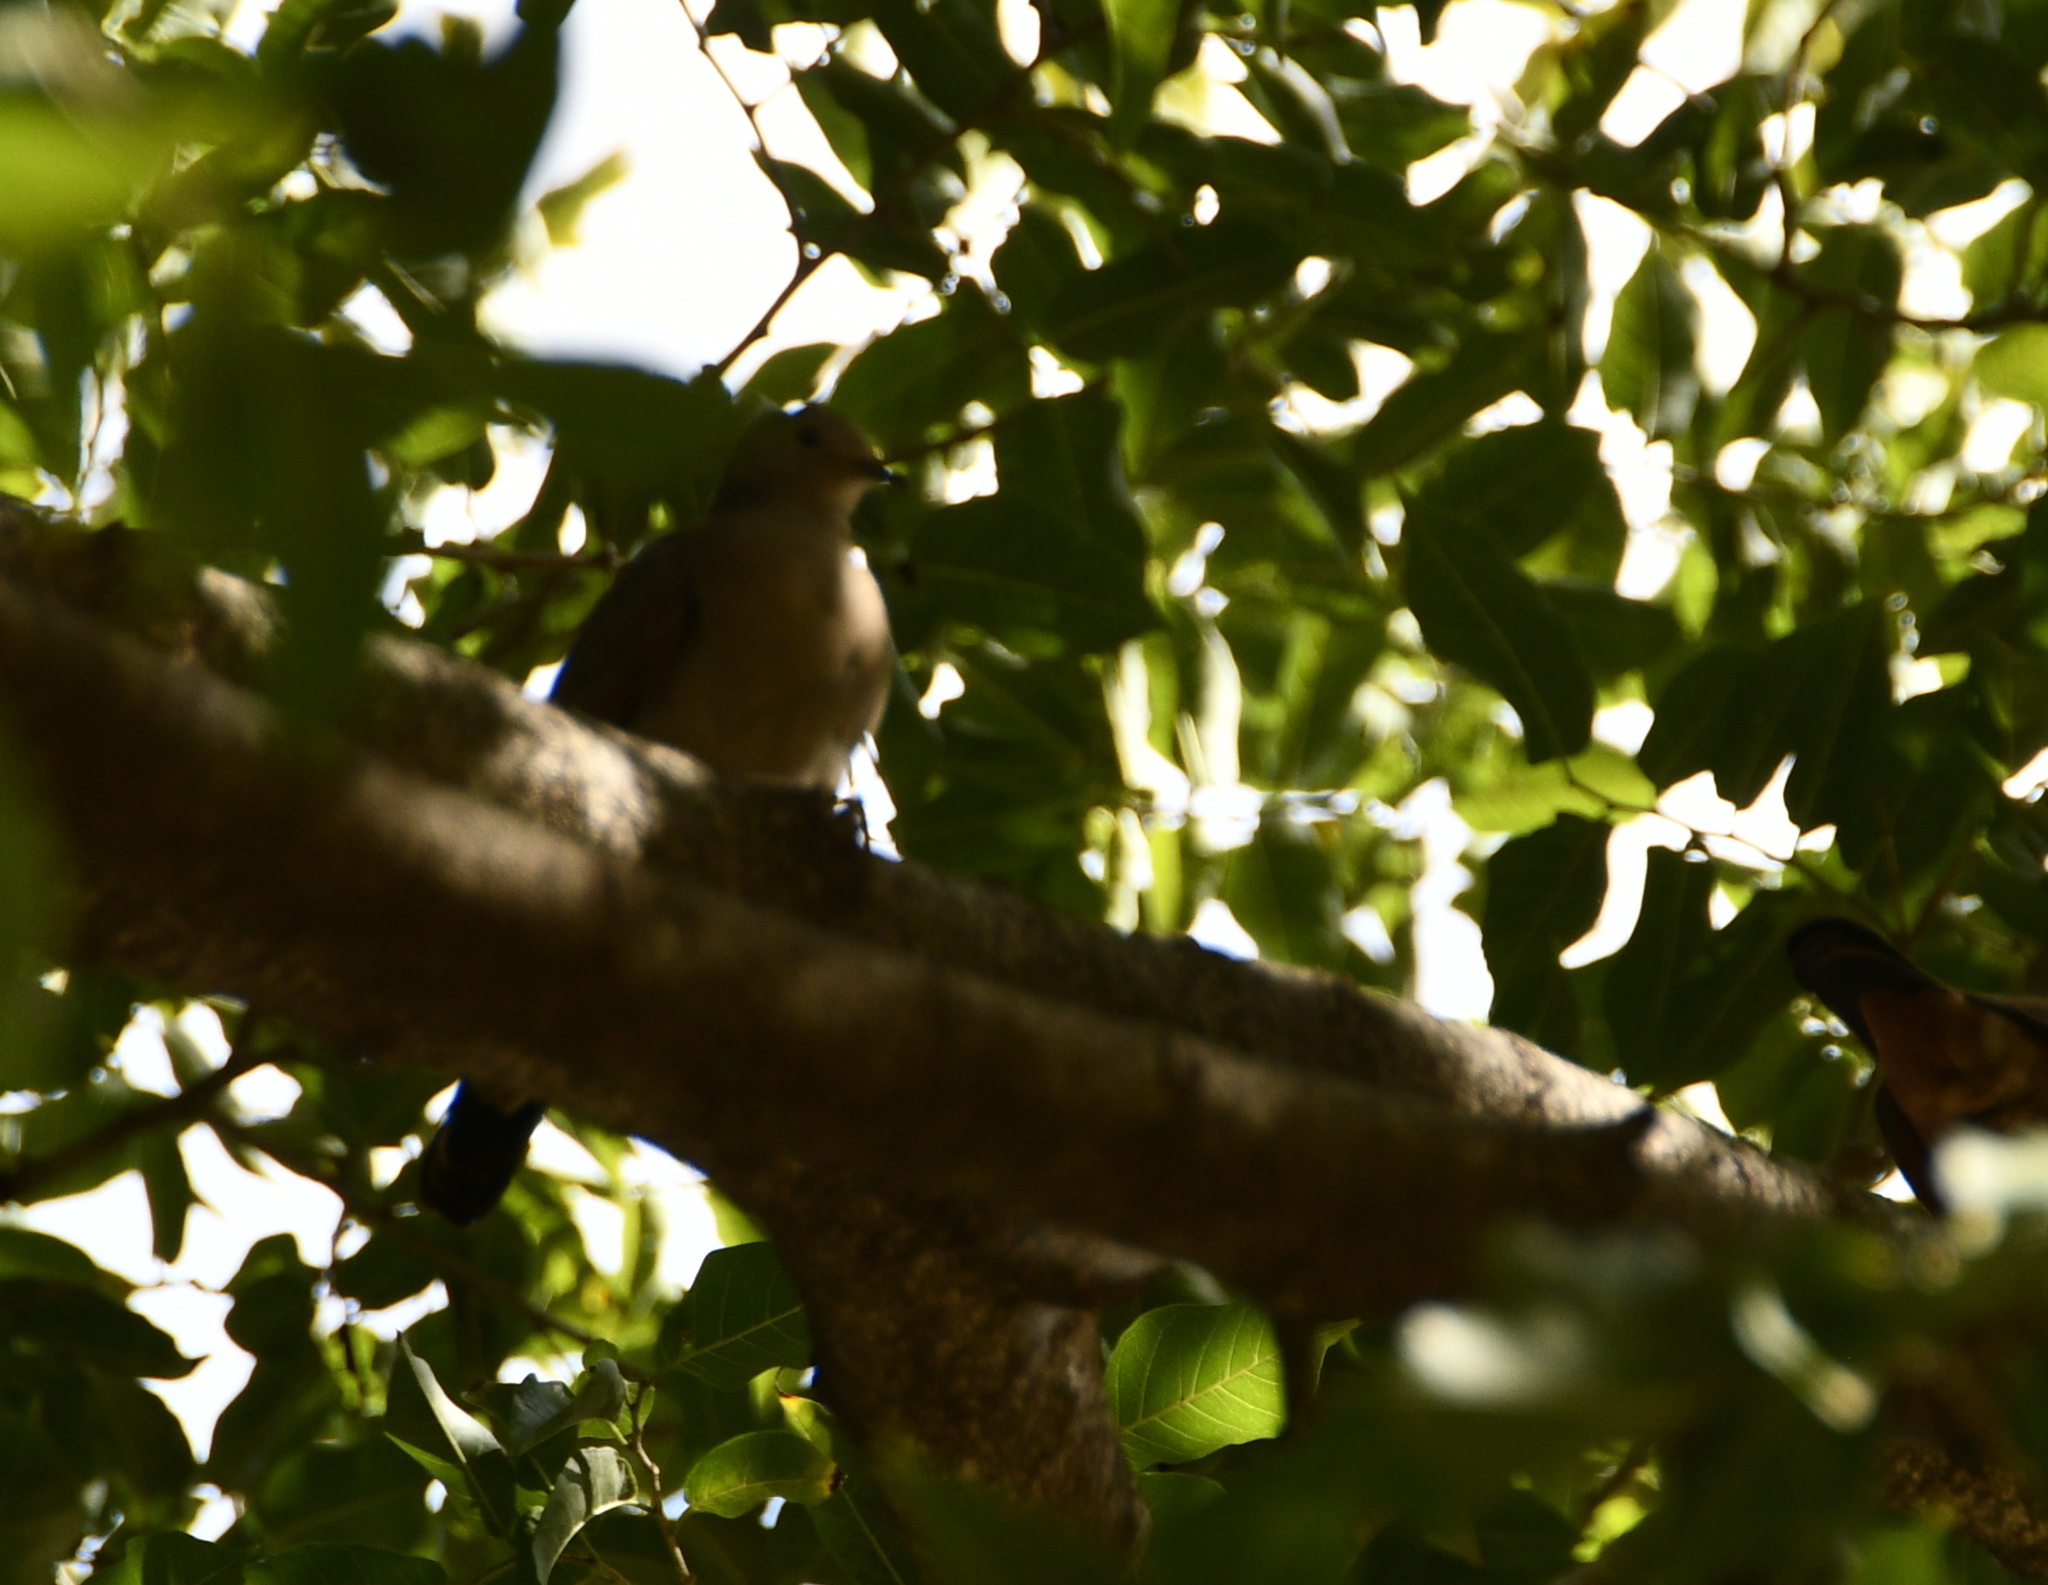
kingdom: Animalia
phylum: Chordata
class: Aves
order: Columbiformes
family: Columbidae
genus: Leptotila
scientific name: Leptotila verreauxi
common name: White-tipped dove
